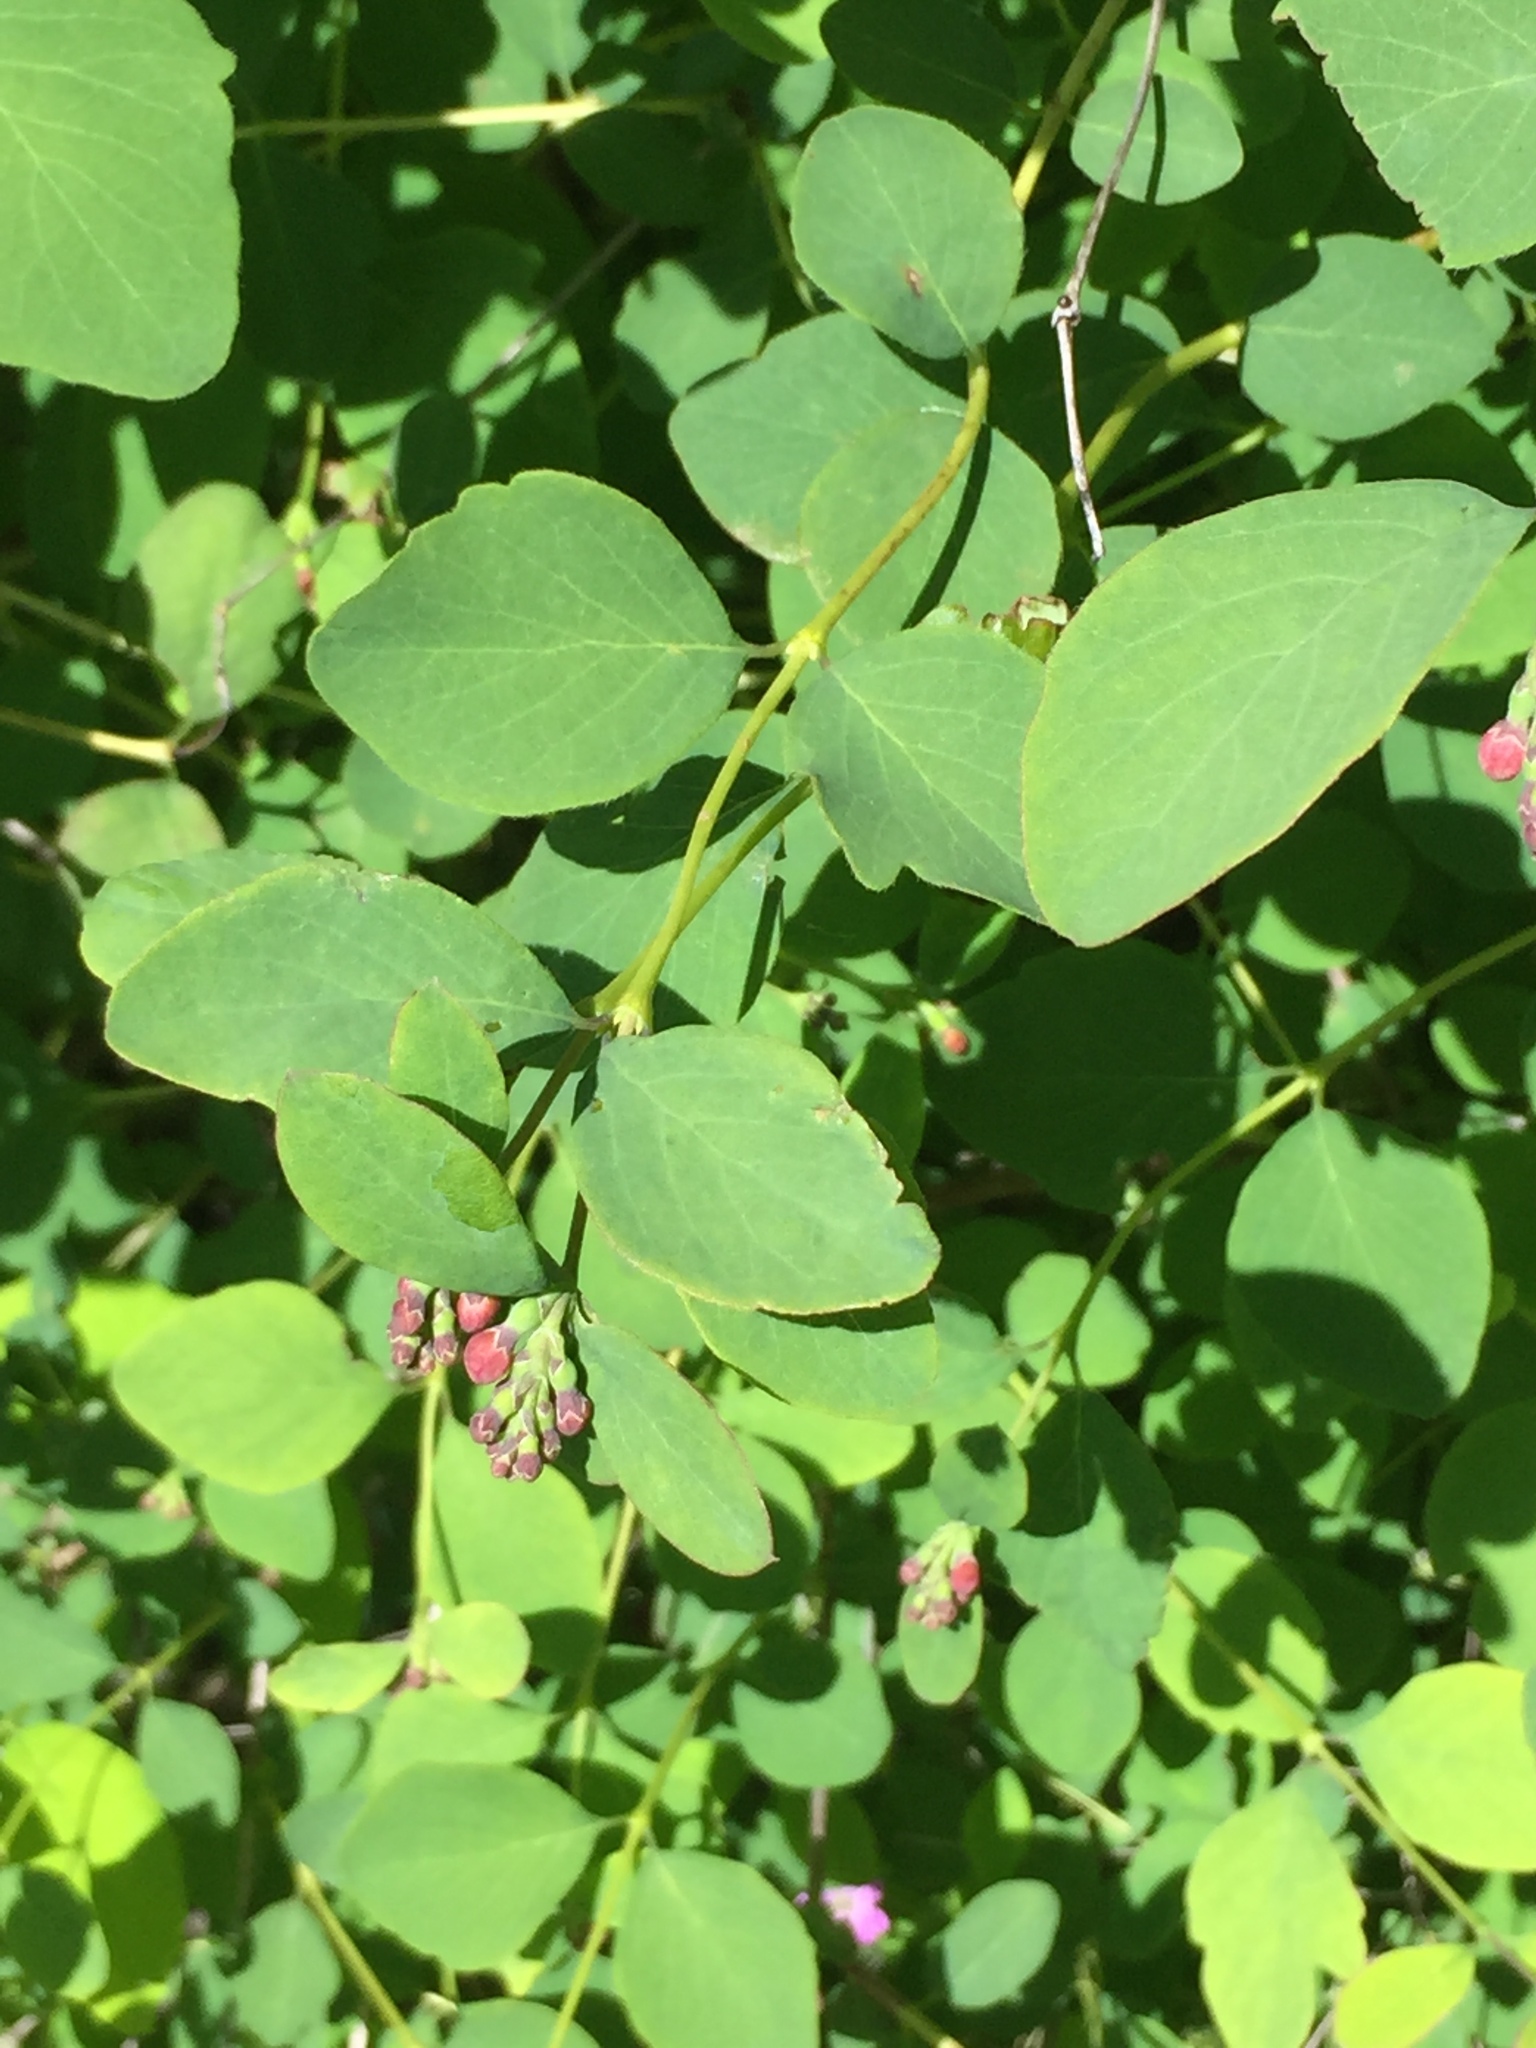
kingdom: Plantae
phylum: Tracheophyta
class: Magnoliopsida
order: Dipsacales
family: Caprifoliaceae
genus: Symphoricarpos
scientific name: Symphoricarpos albus
